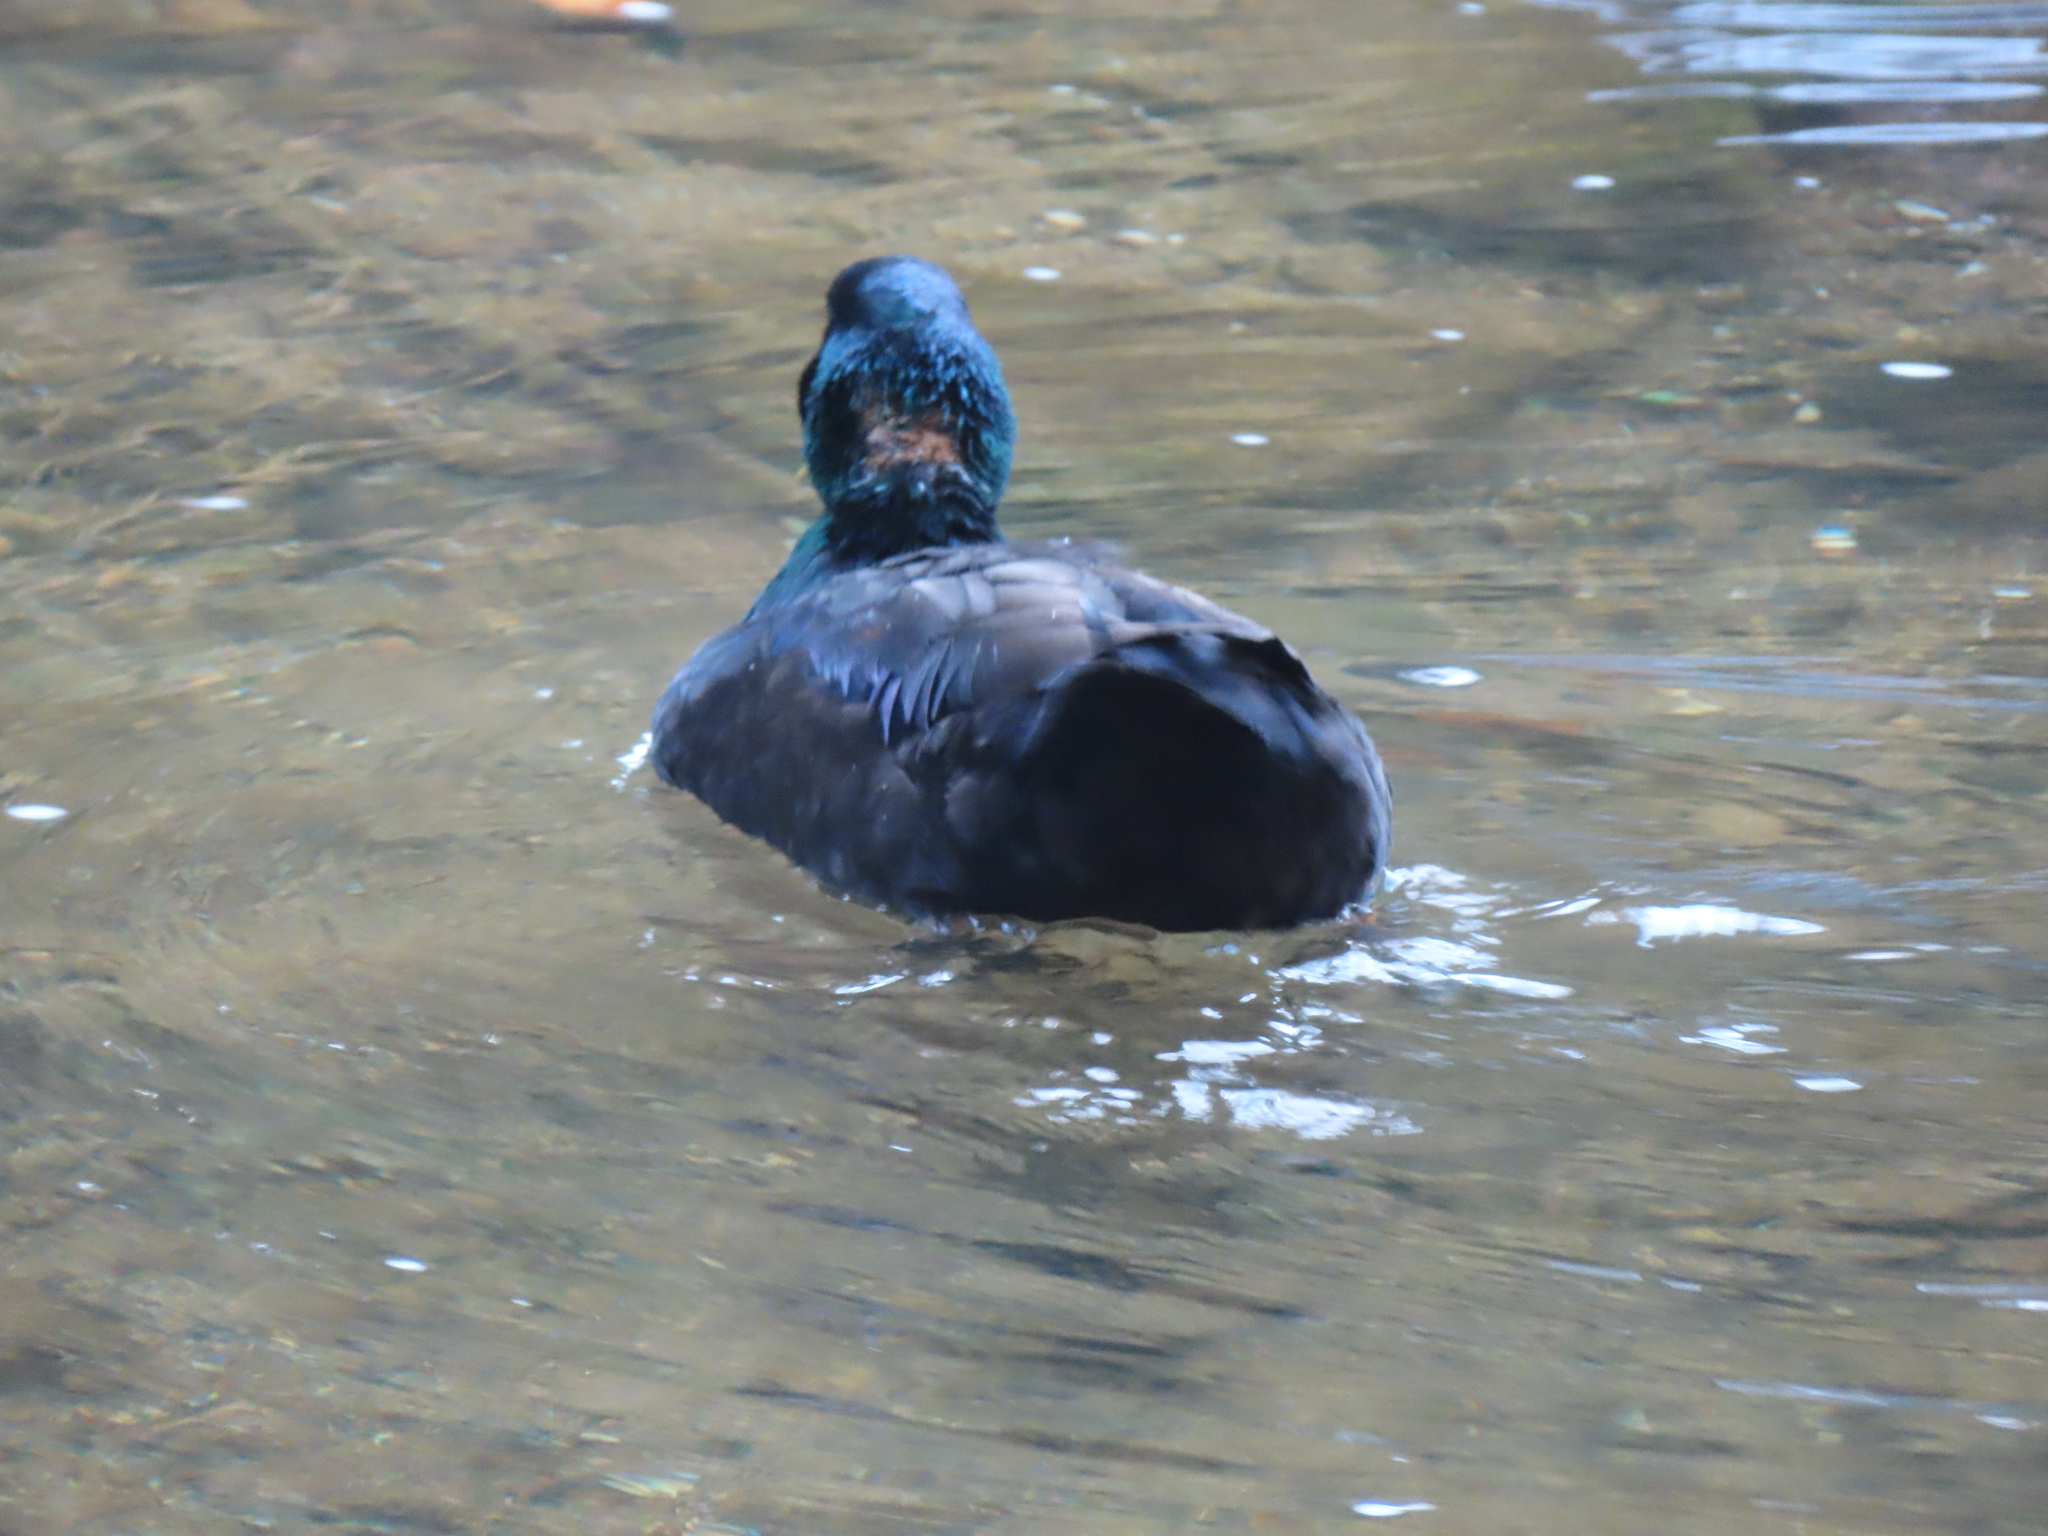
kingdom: Animalia
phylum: Chordata
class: Aves
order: Anseriformes
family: Anatidae
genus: Anas
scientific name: Anas platyrhynchos
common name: Mallard
